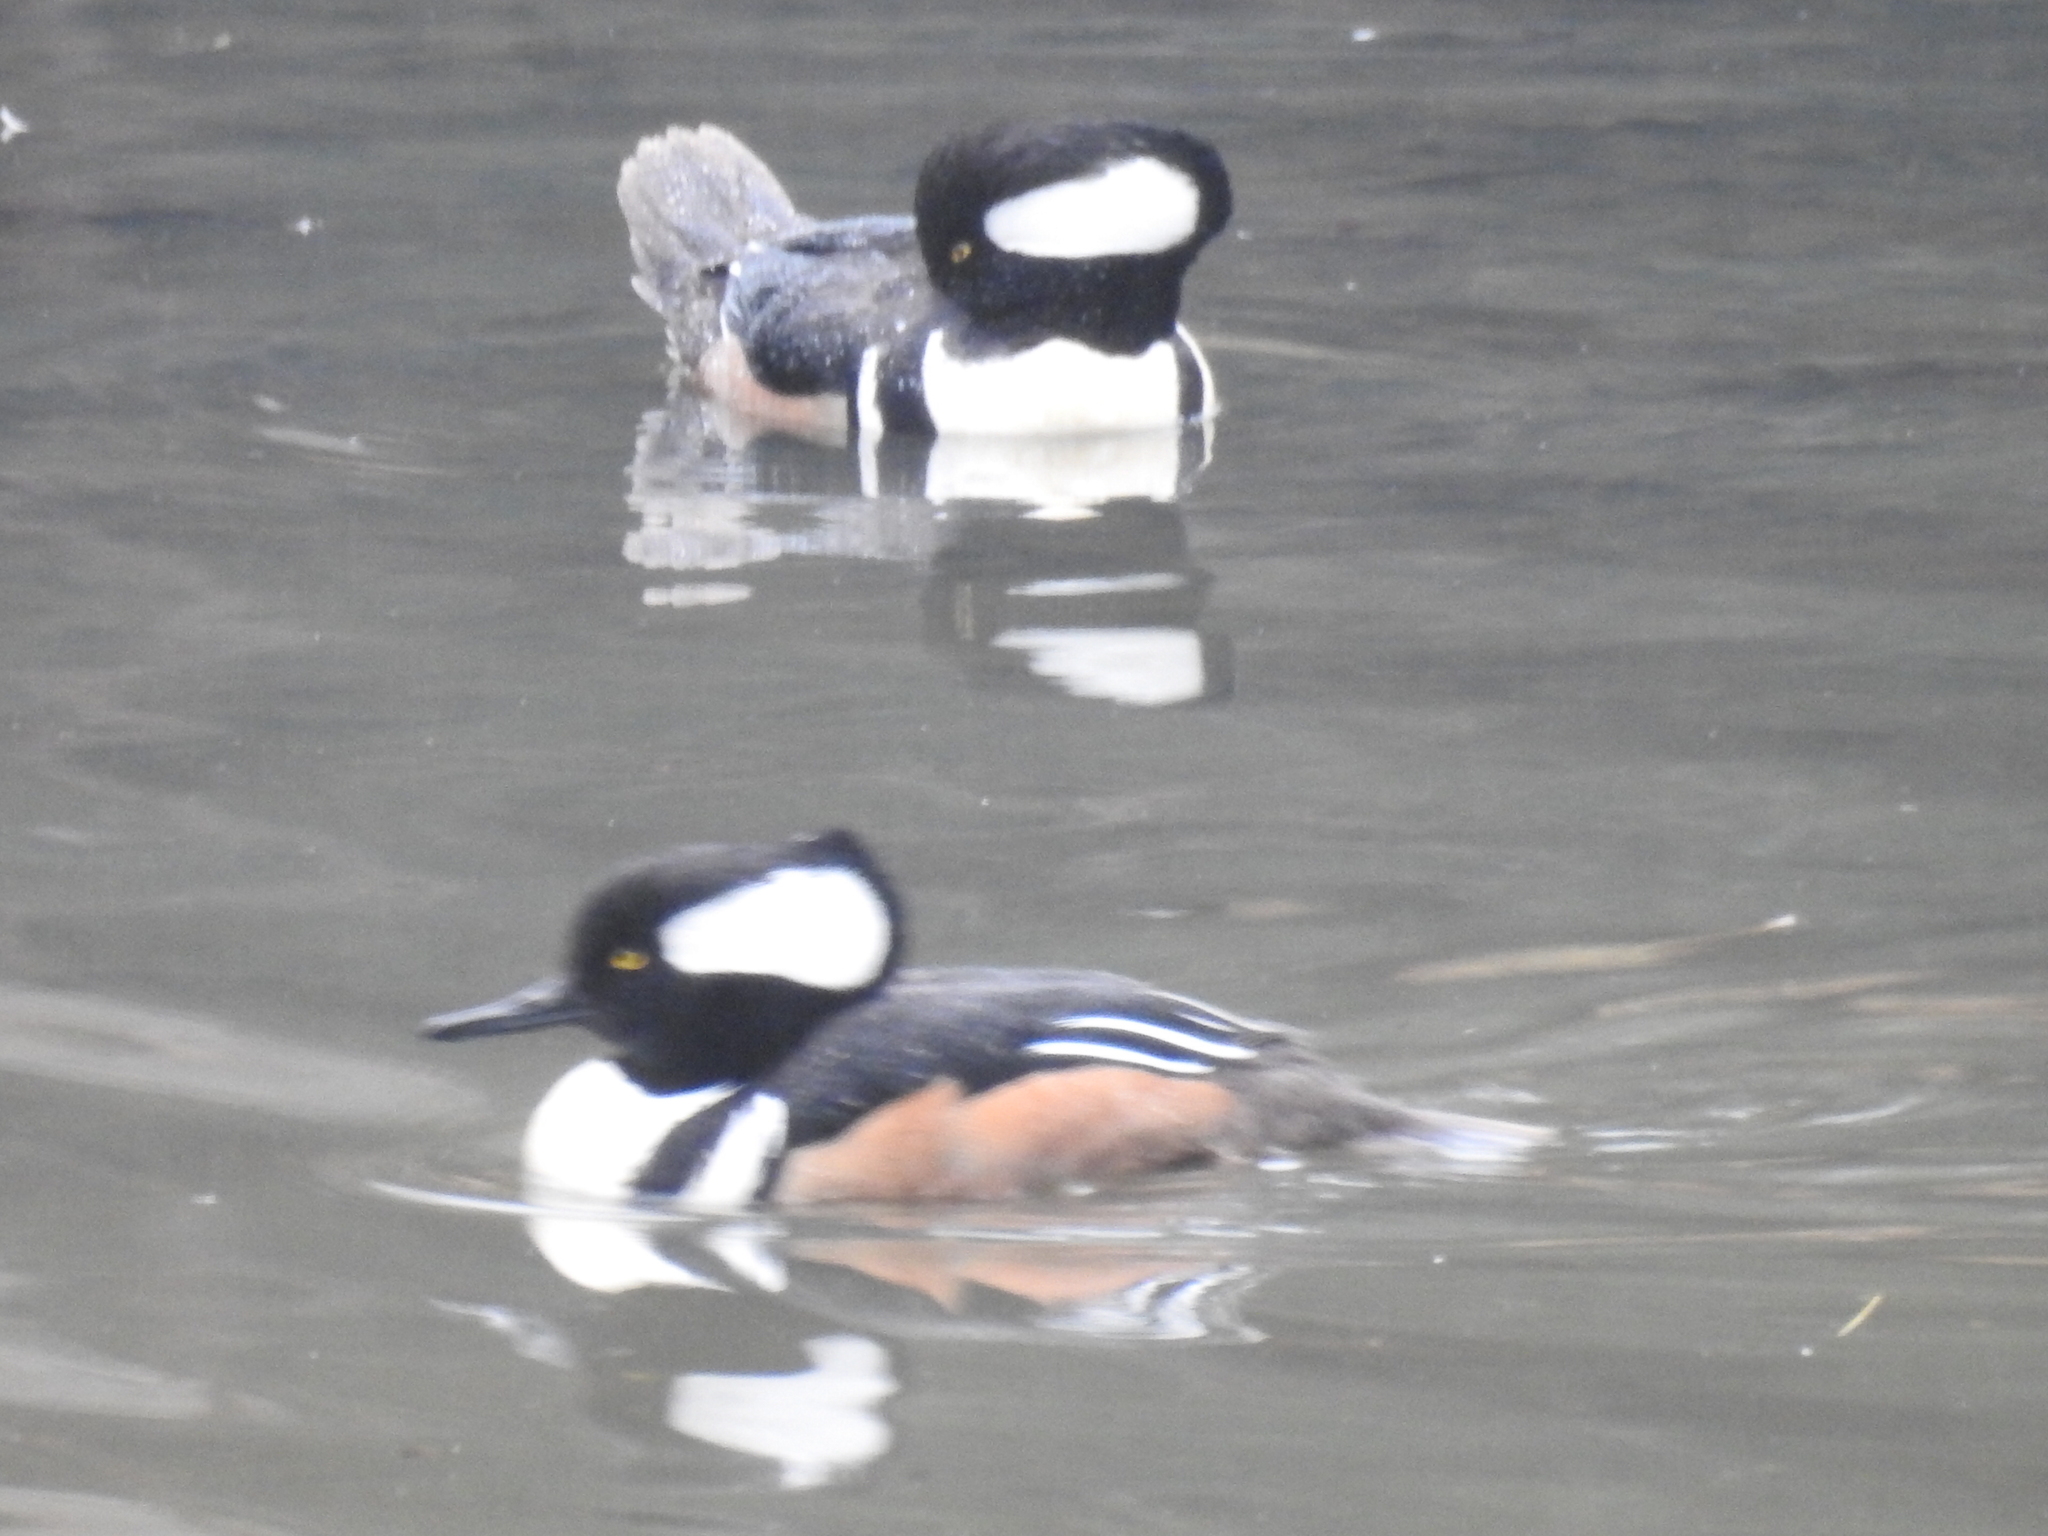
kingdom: Animalia
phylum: Chordata
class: Aves
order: Anseriformes
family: Anatidae
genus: Lophodytes
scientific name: Lophodytes cucullatus
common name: Hooded merganser
